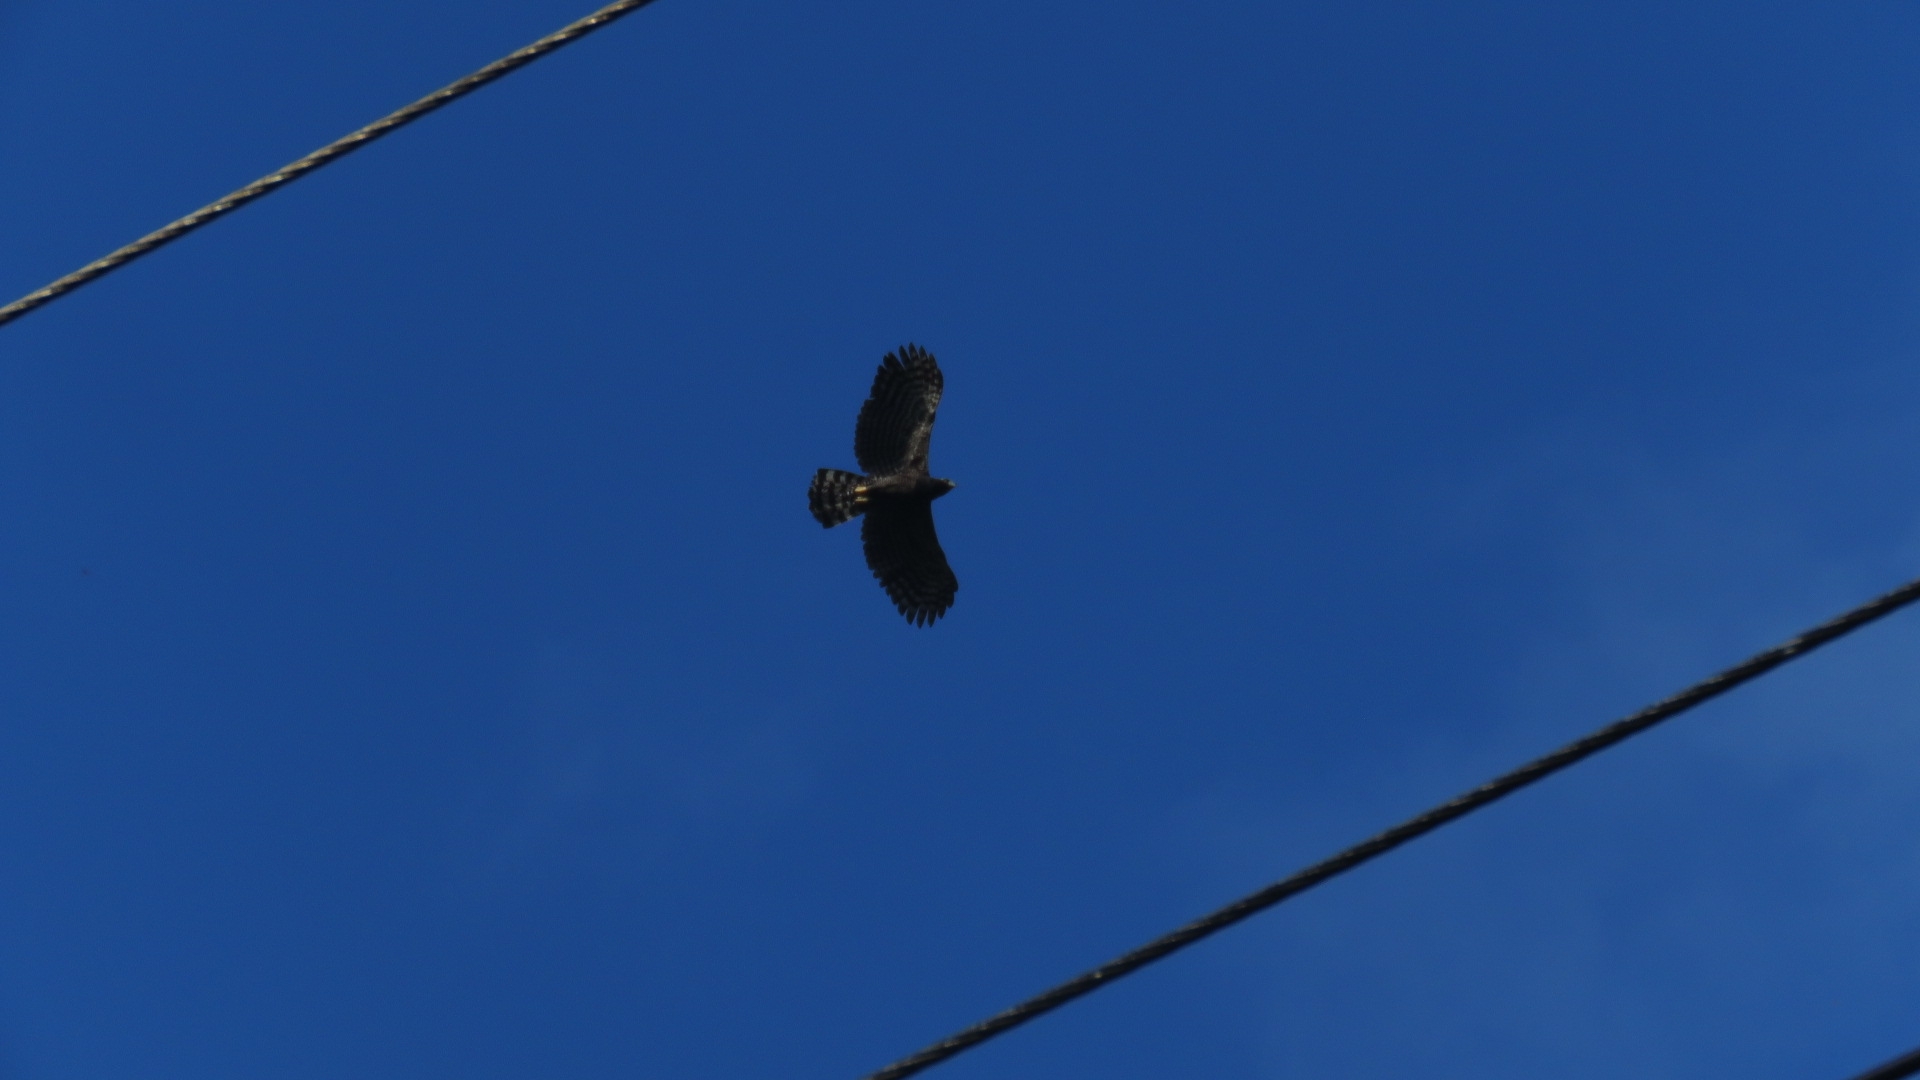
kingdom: Animalia
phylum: Chordata
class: Aves
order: Accipitriformes
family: Accipitridae
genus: Spizaetus
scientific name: Spizaetus tyrannus
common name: Black hawk-eagle
